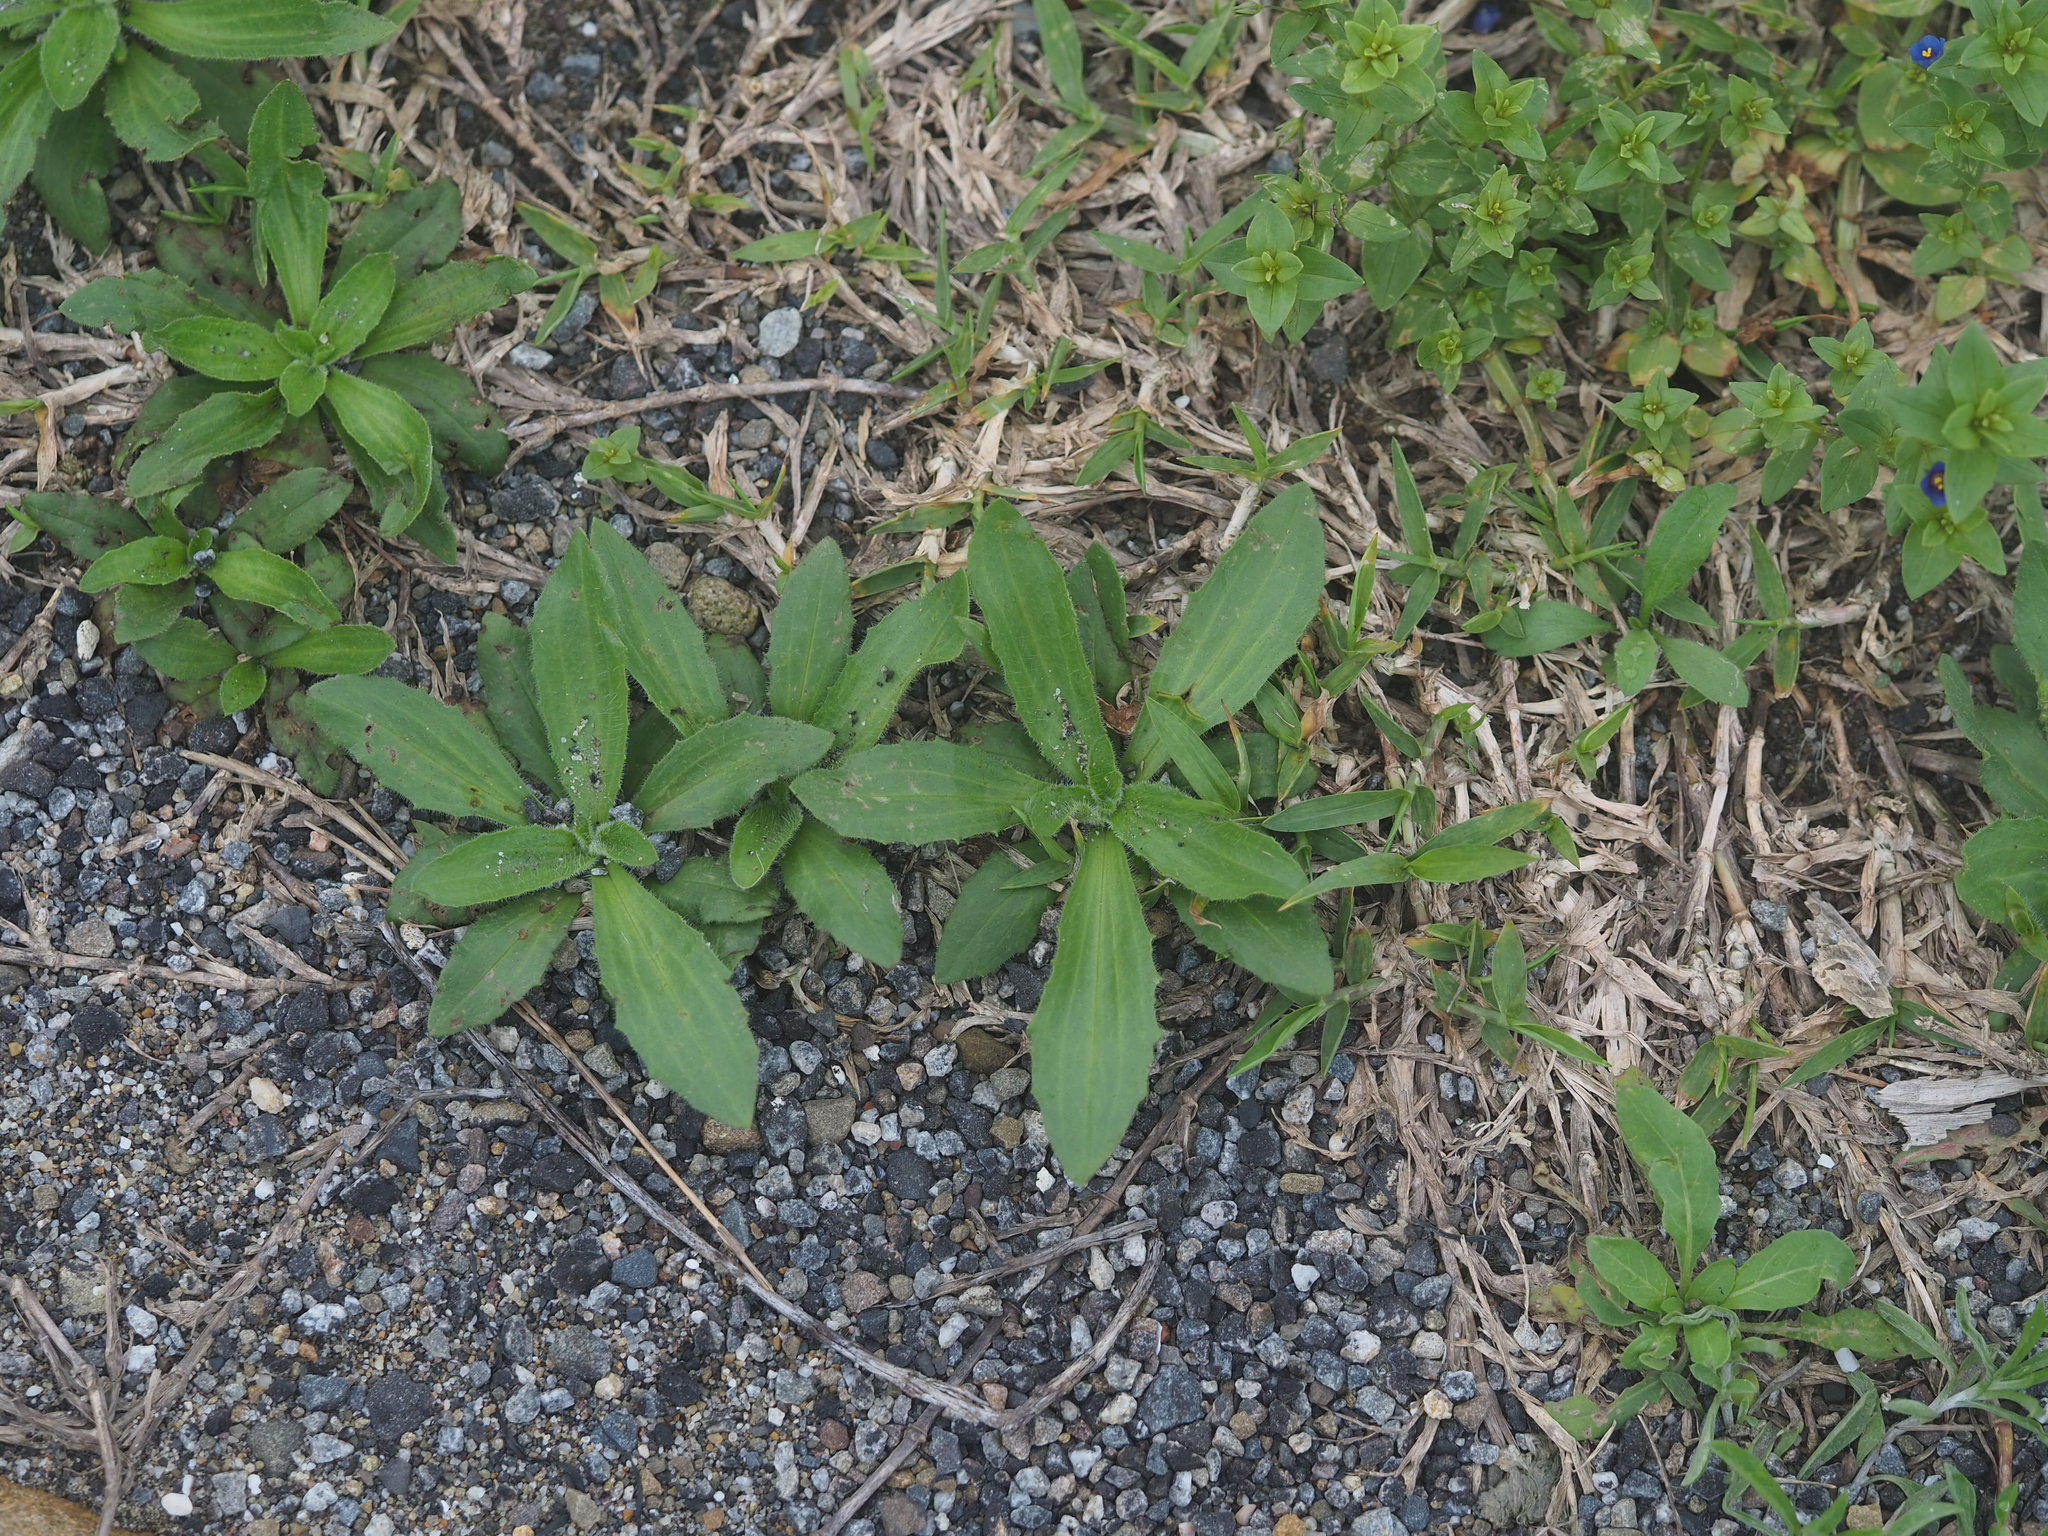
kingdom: Plantae
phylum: Tracheophyta
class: Magnoliopsida
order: Lamiales
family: Plantaginaceae
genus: Plantago
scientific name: Plantago virginica
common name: Hoary plantain
